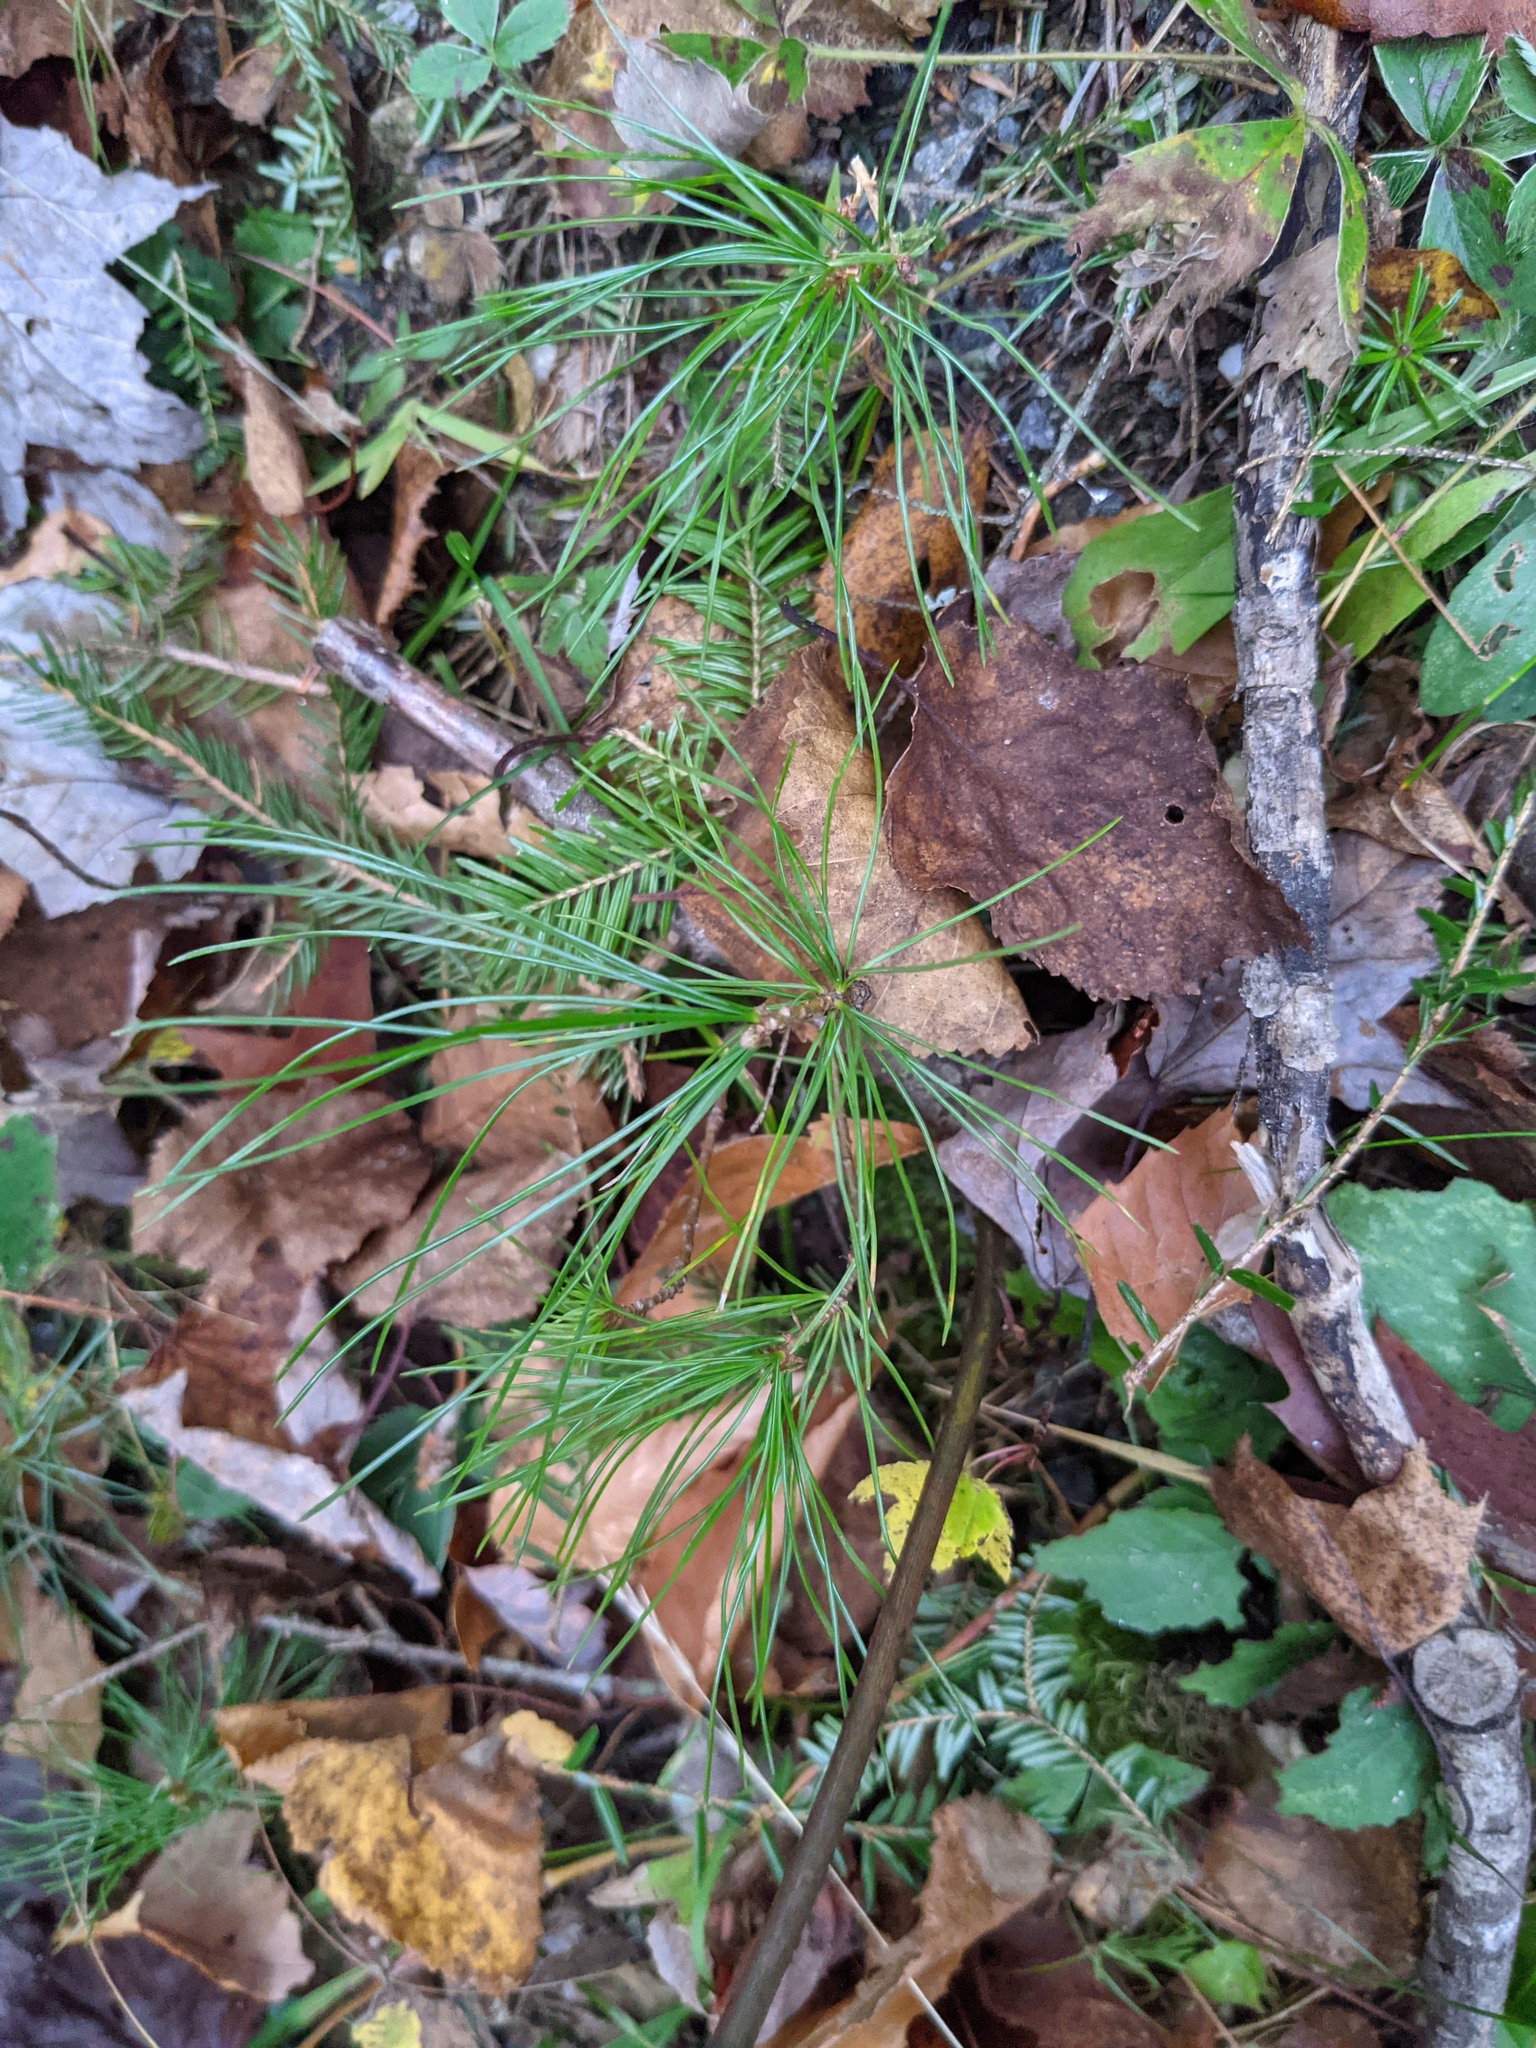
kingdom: Plantae
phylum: Tracheophyta
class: Pinopsida
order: Pinales
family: Pinaceae
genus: Pinus
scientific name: Pinus strobus
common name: Weymouth pine
